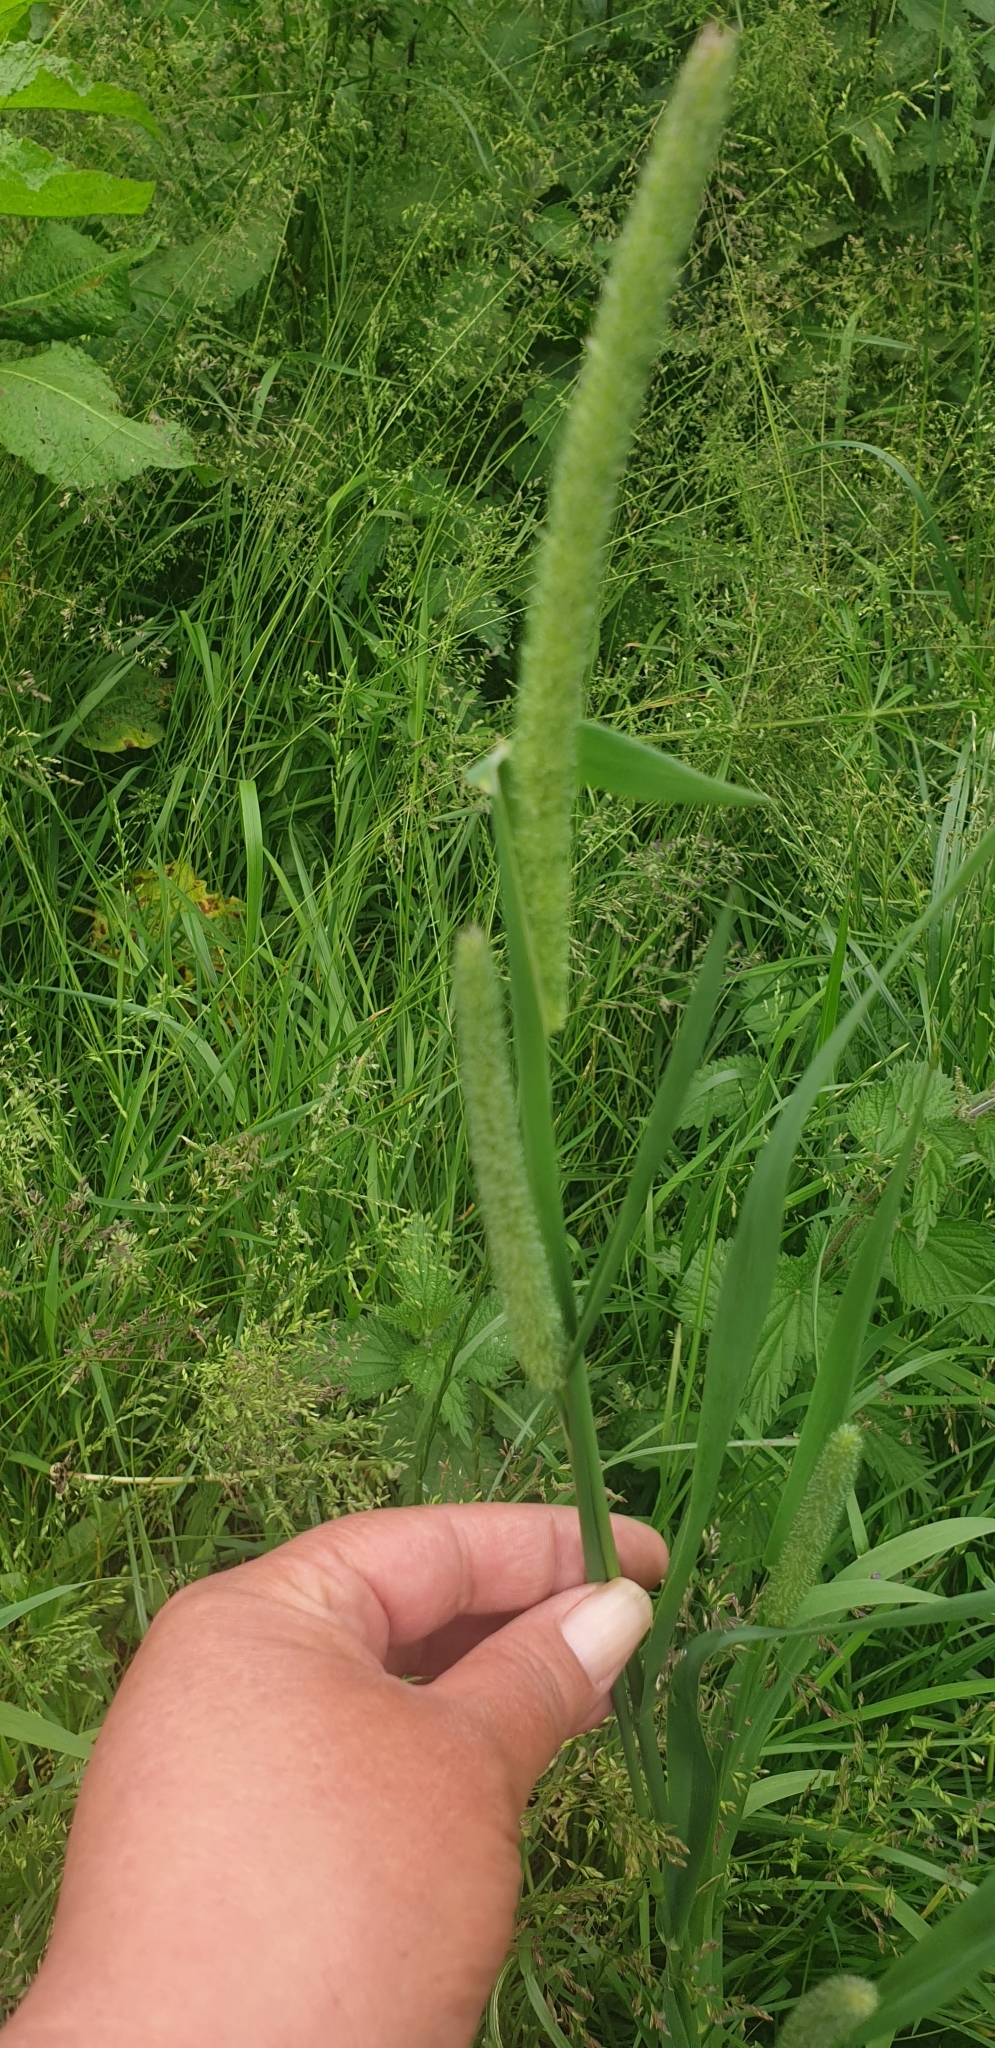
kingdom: Plantae
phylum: Tracheophyta
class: Liliopsida
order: Poales
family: Poaceae
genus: Phleum
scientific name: Phleum pratense
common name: Timothy grass
